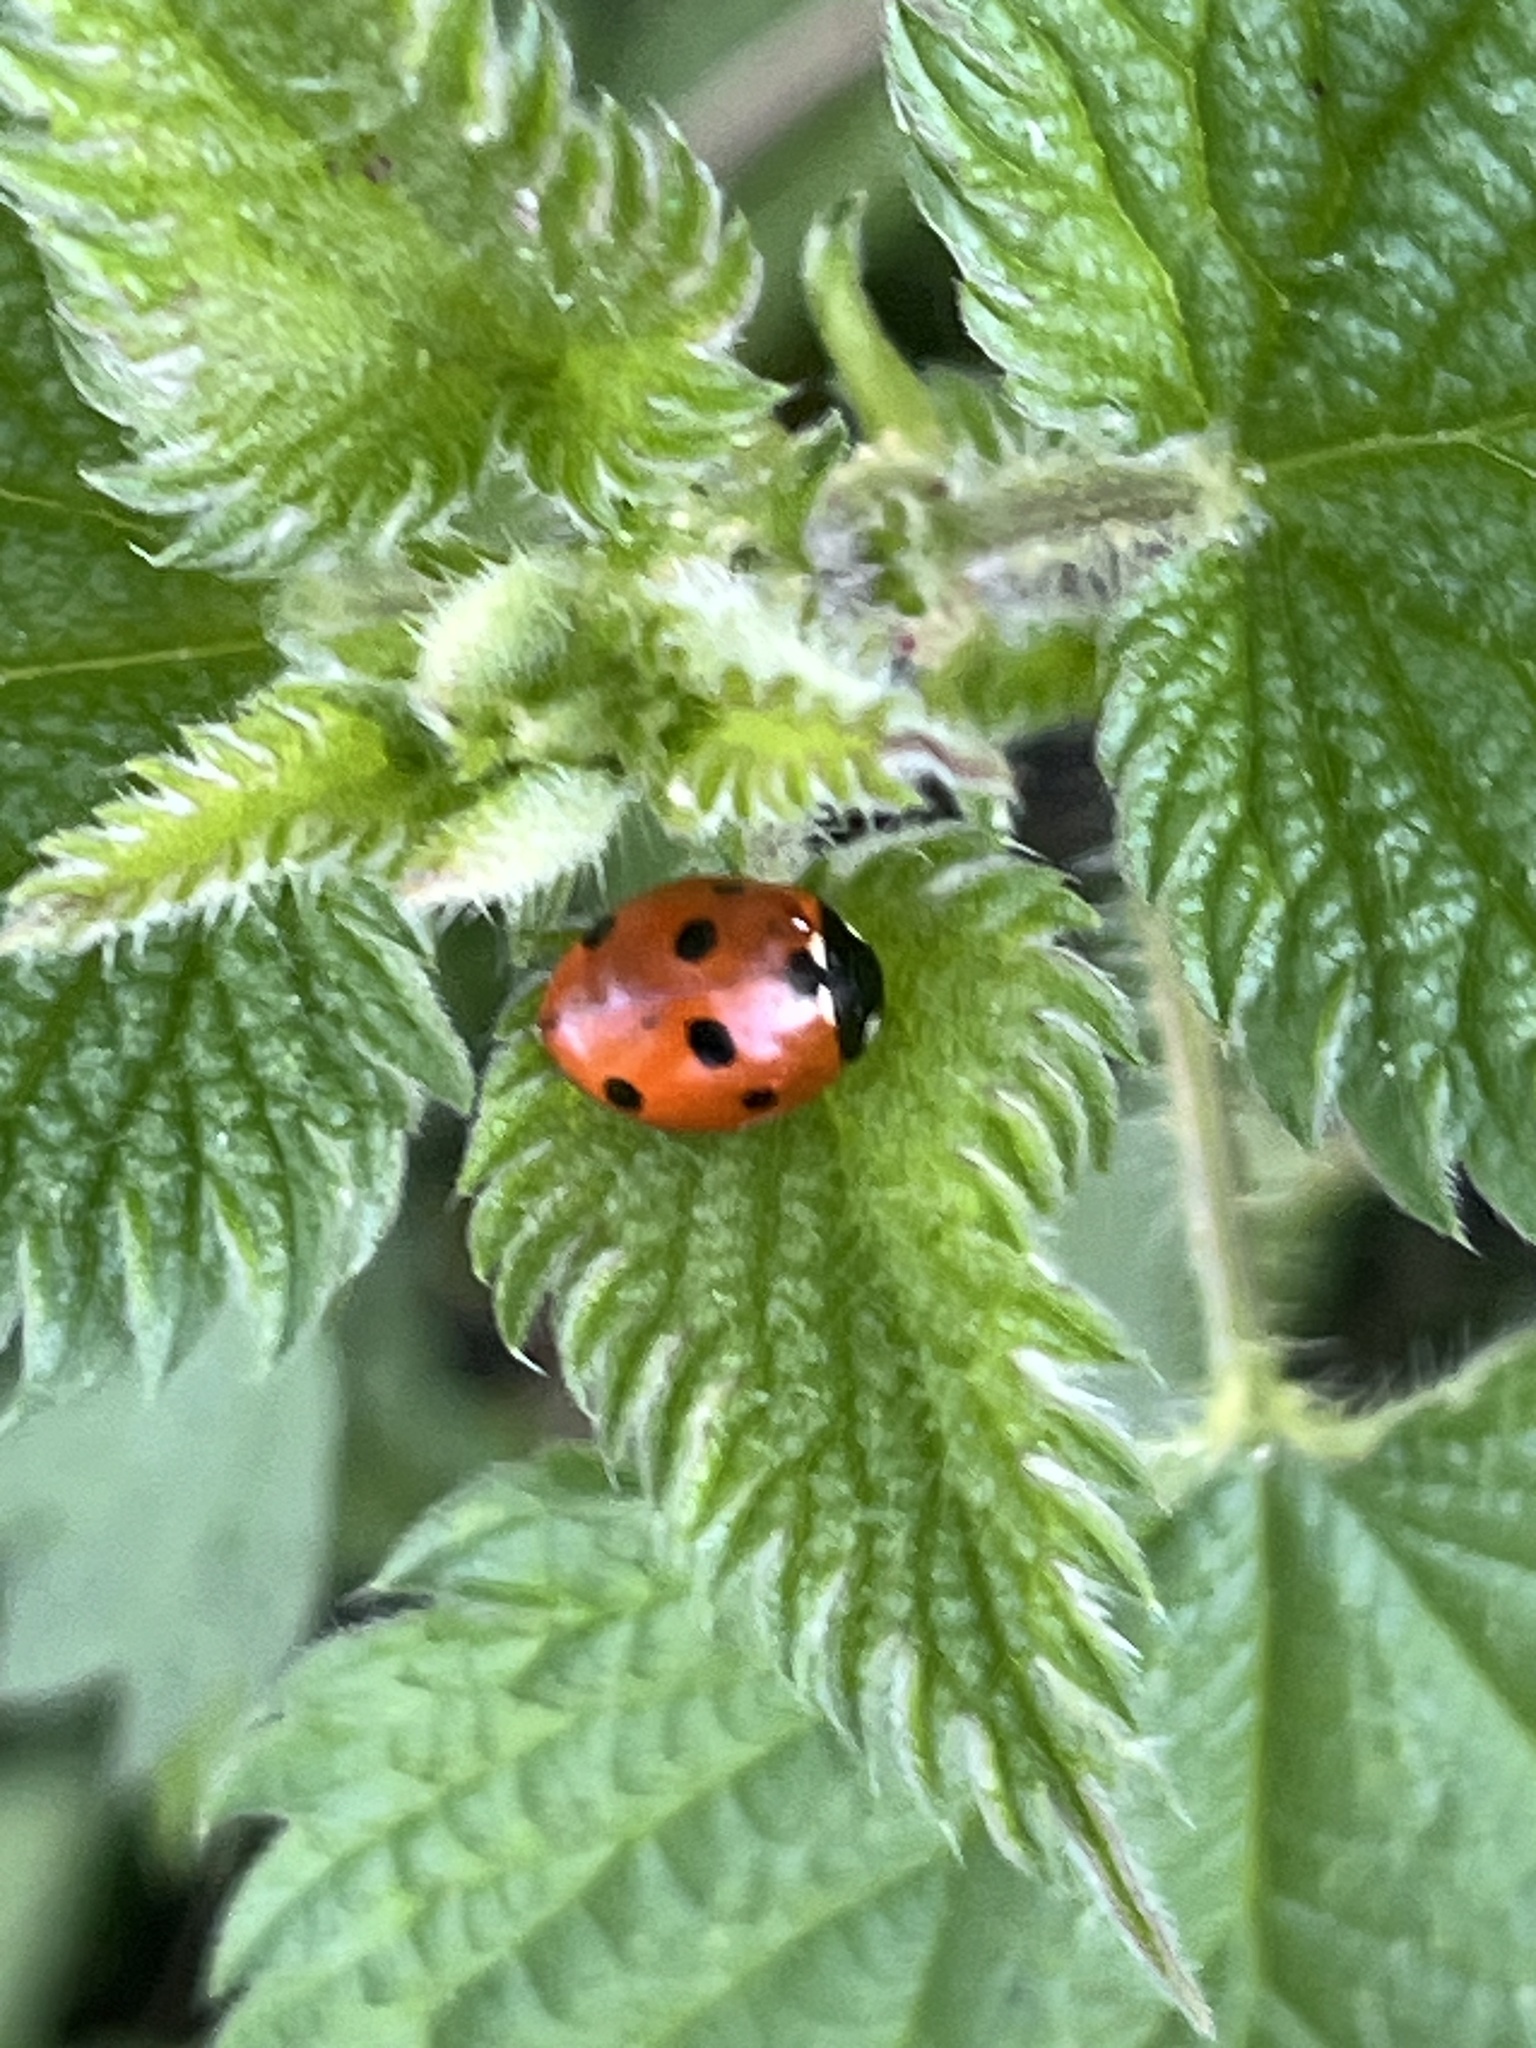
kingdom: Animalia
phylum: Arthropoda
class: Insecta
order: Coleoptera
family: Coccinellidae
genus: Coccinella
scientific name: Coccinella septempunctata
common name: Sevenspotted lady beetle
